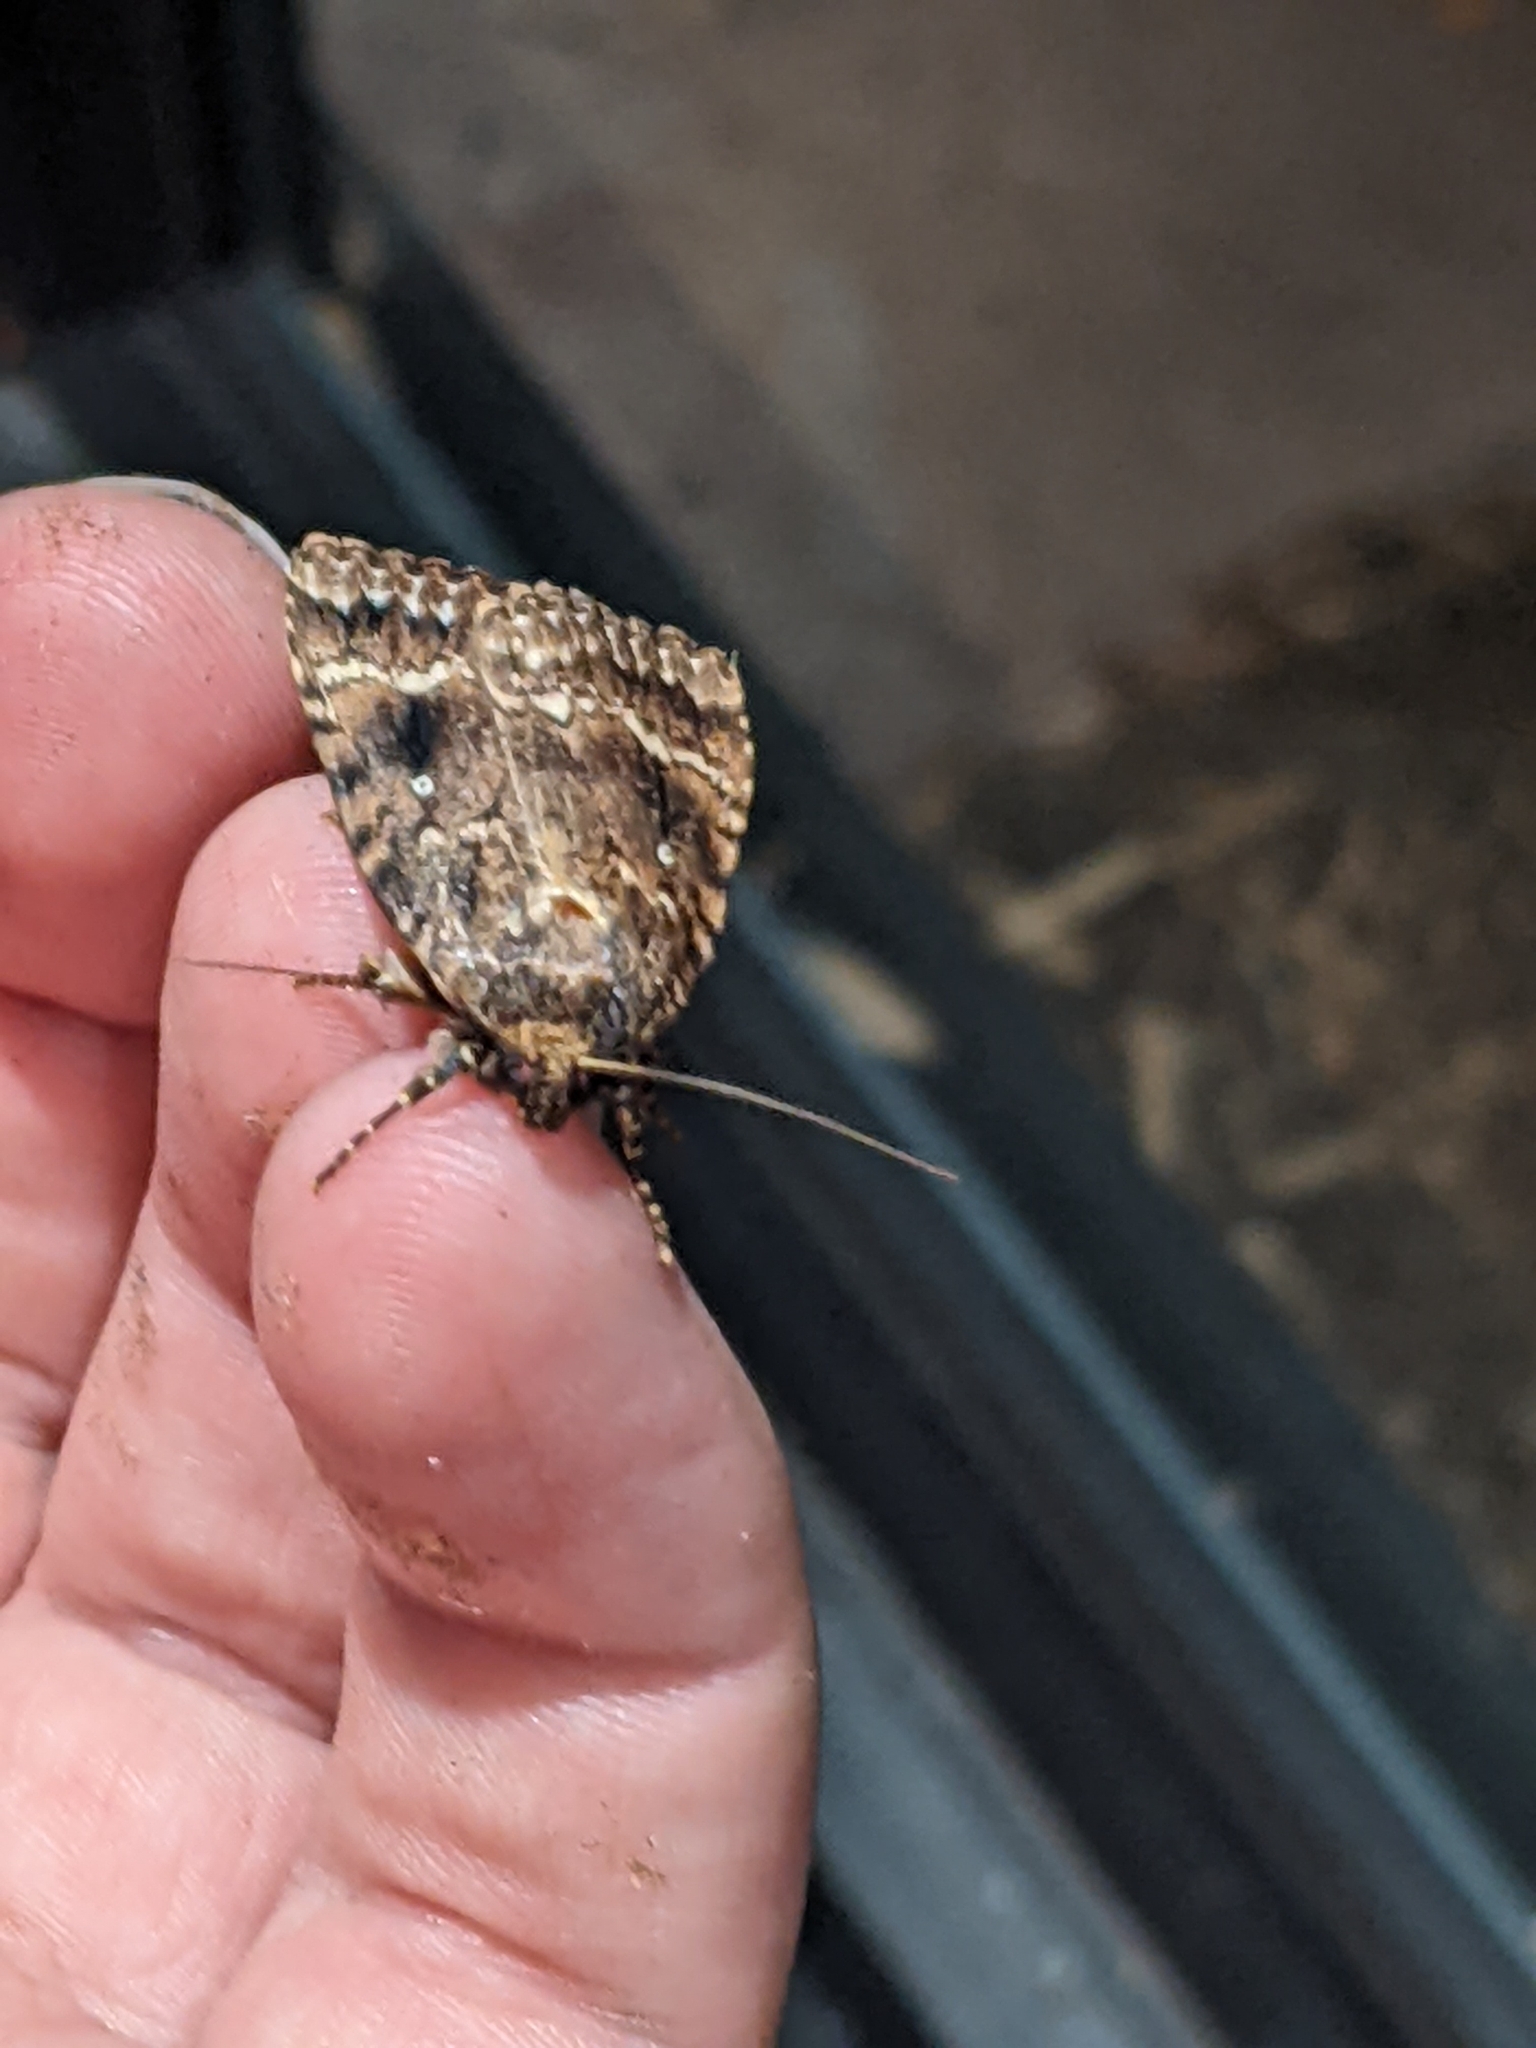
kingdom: Animalia
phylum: Arthropoda
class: Insecta
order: Lepidoptera
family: Noctuidae
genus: Amphipyra
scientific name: Amphipyra pyramidea
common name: Copper underwing
